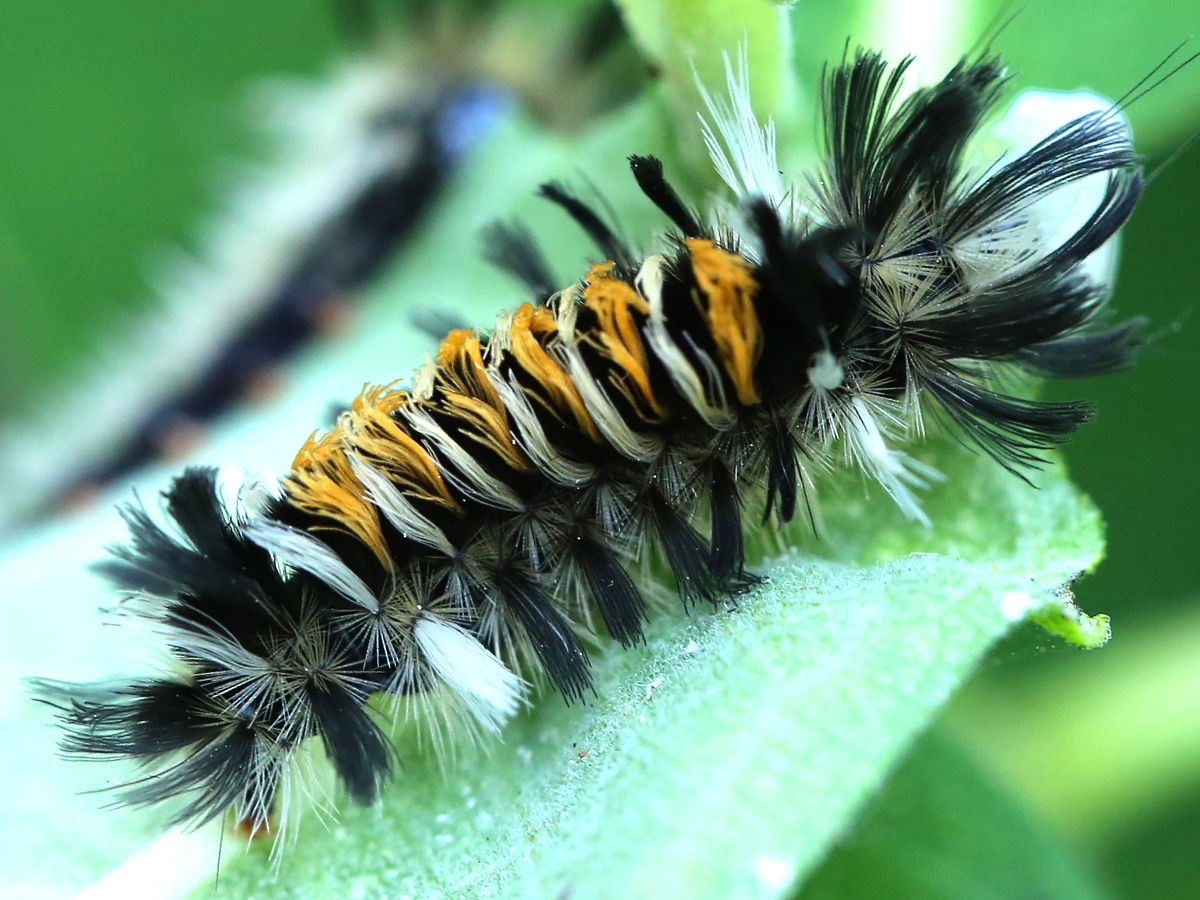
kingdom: Animalia
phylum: Arthropoda
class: Insecta
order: Lepidoptera
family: Erebidae
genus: Euchaetes
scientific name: Euchaetes egle
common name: Milkweed tussock moth
